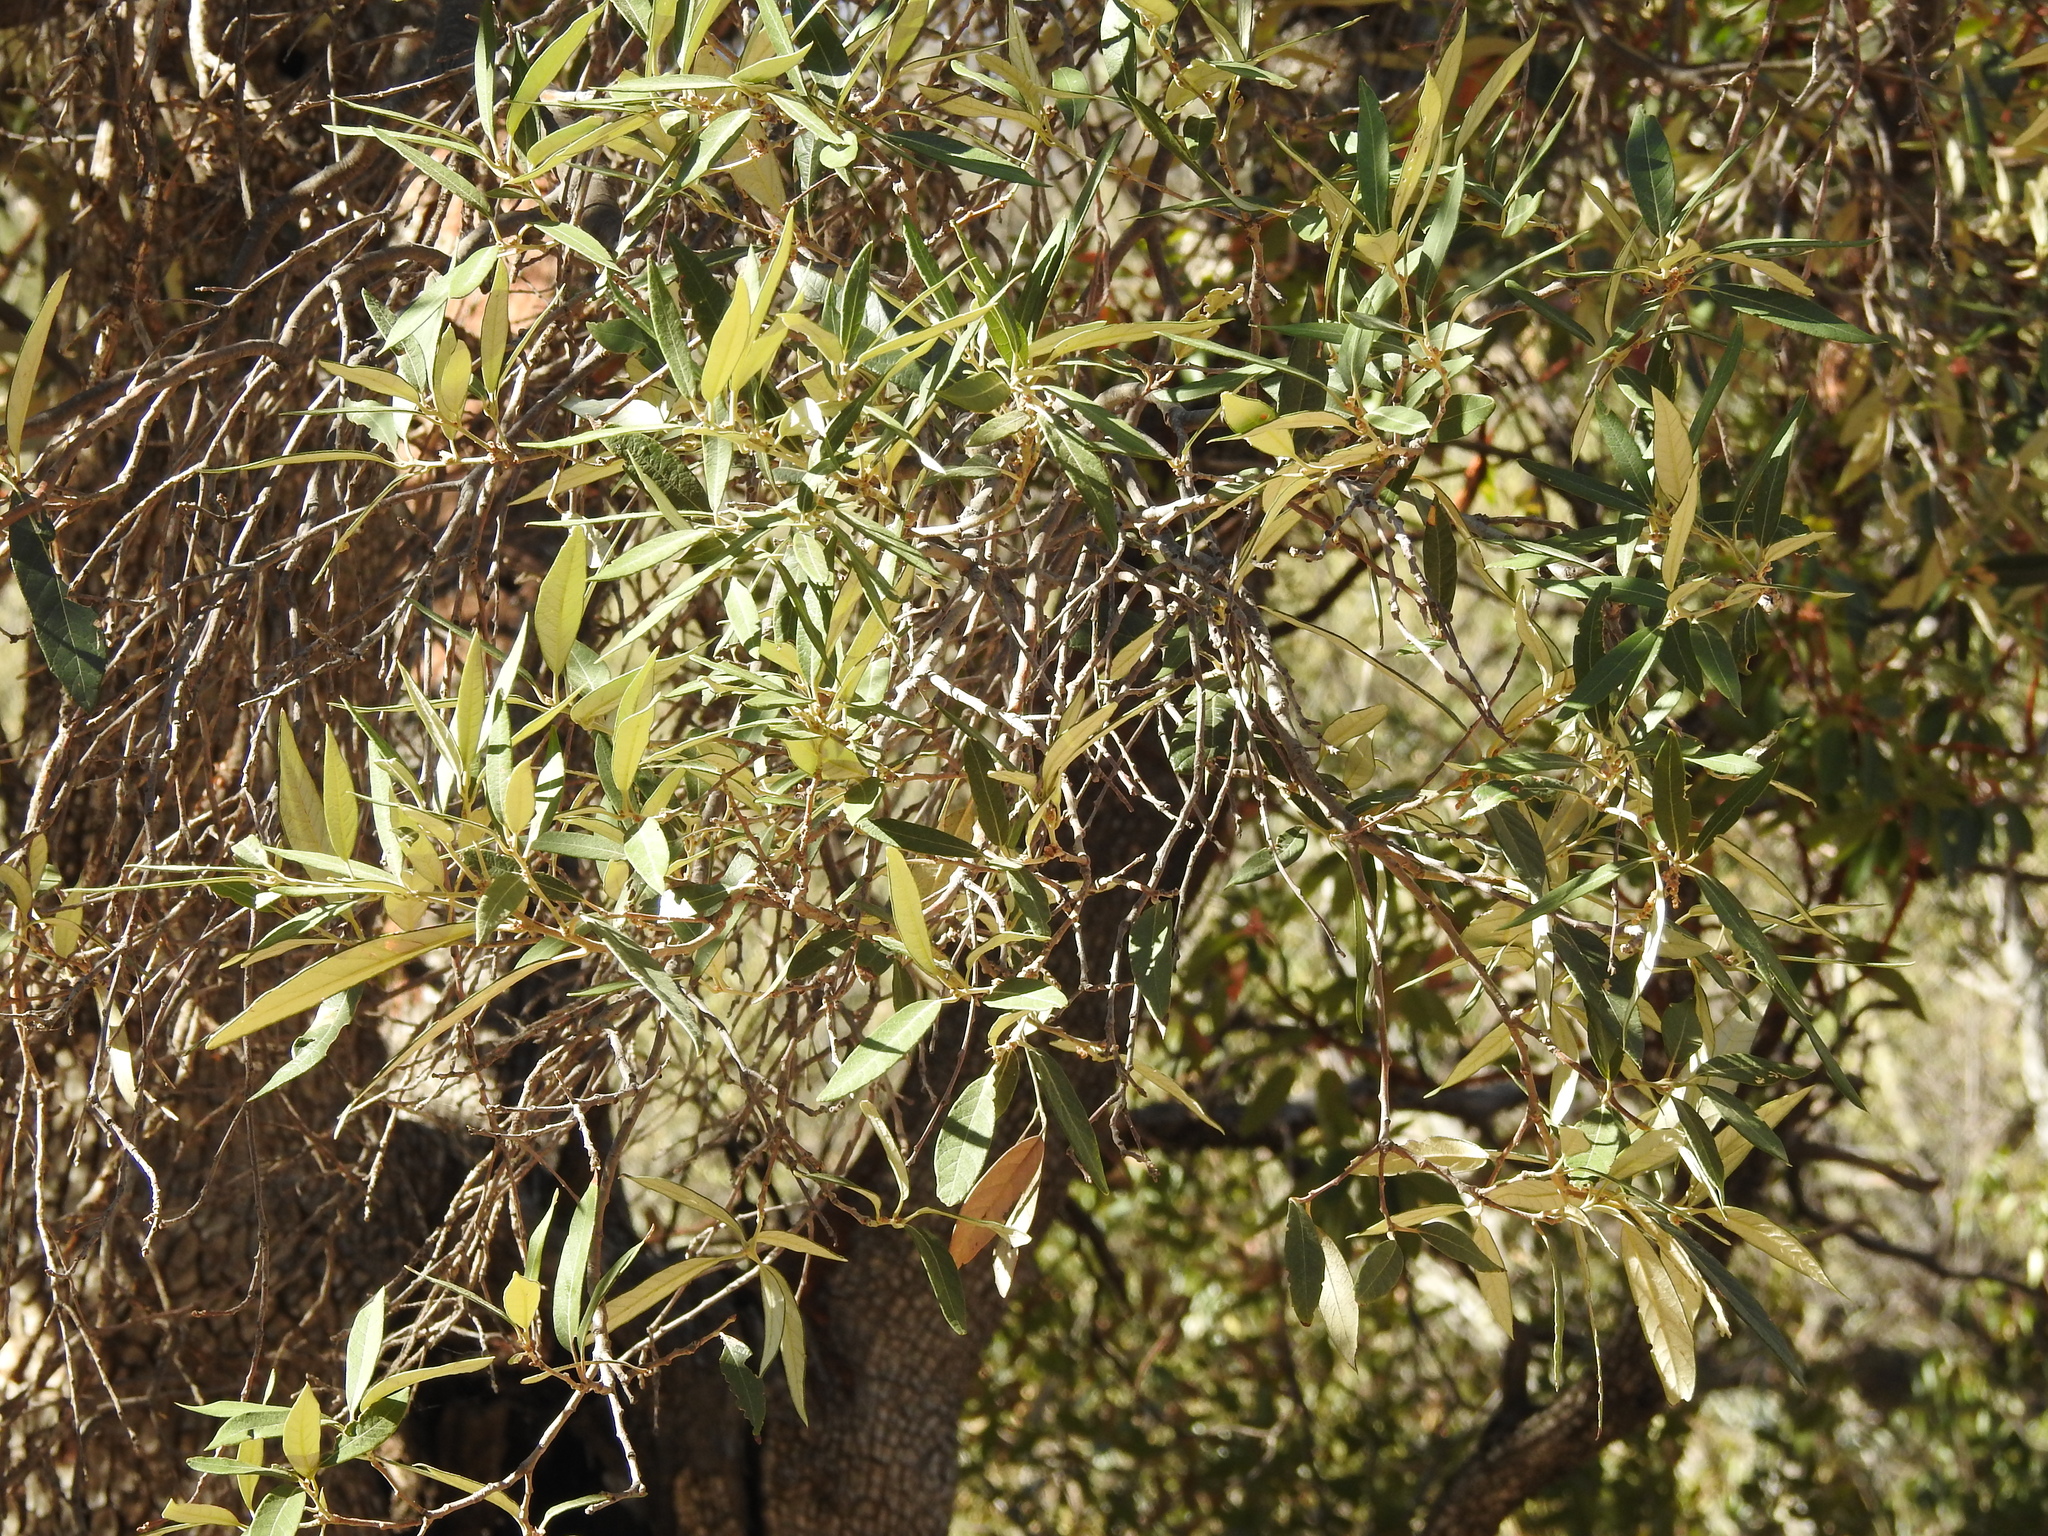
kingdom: Plantae
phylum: Tracheophyta
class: Magnoliopsida
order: Fagales
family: Fagaceae
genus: Quercus
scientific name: Quercus hypoleucoides
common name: Silverleaf oak
